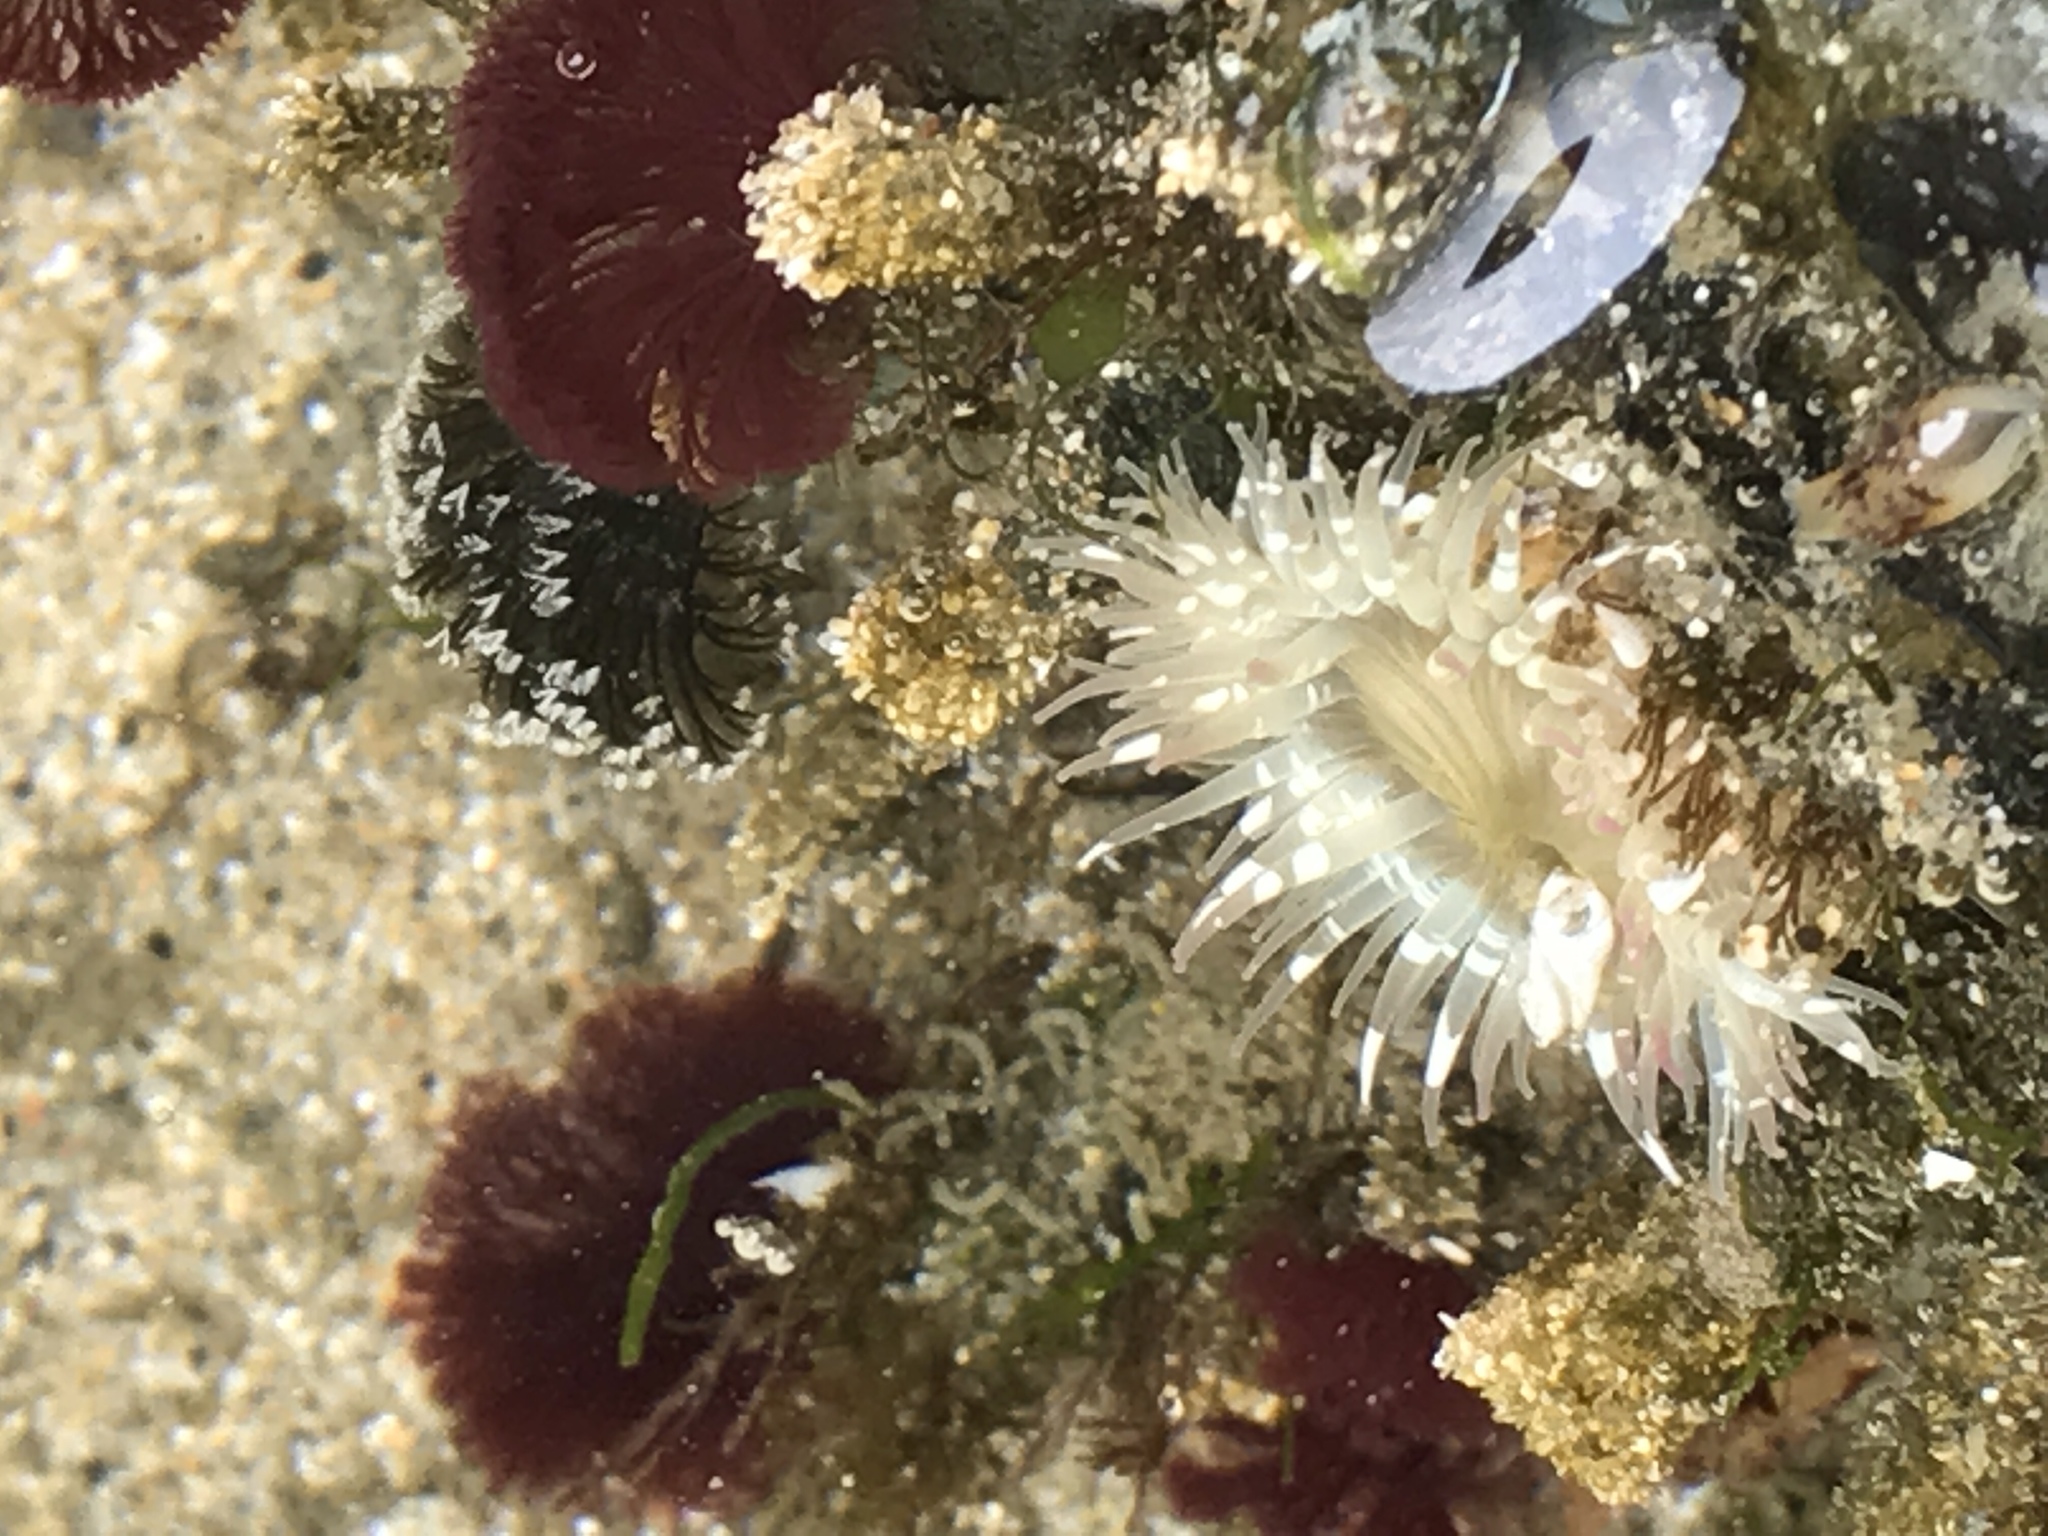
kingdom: Animalia
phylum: Annelida
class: Polychaeta
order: Sabellida
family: Sabellidae
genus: Schizobranchia
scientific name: Schizobranchia insignis
